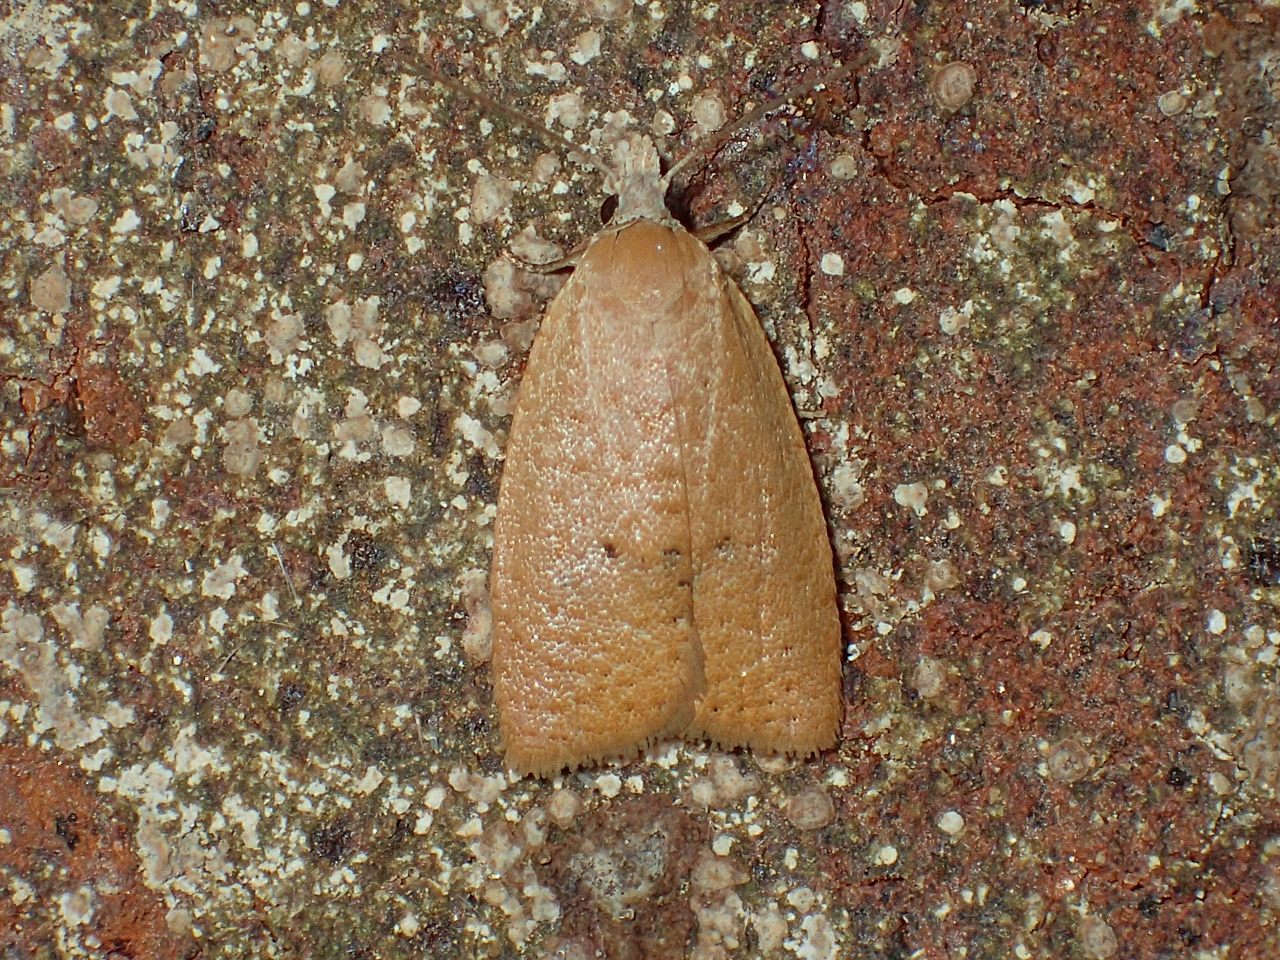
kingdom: Animalia
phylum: Arthropoda
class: Insecta
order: Lepidoptera
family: Tortricidae
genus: Sparganothoides
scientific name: Sparganothoides lentiginosana
